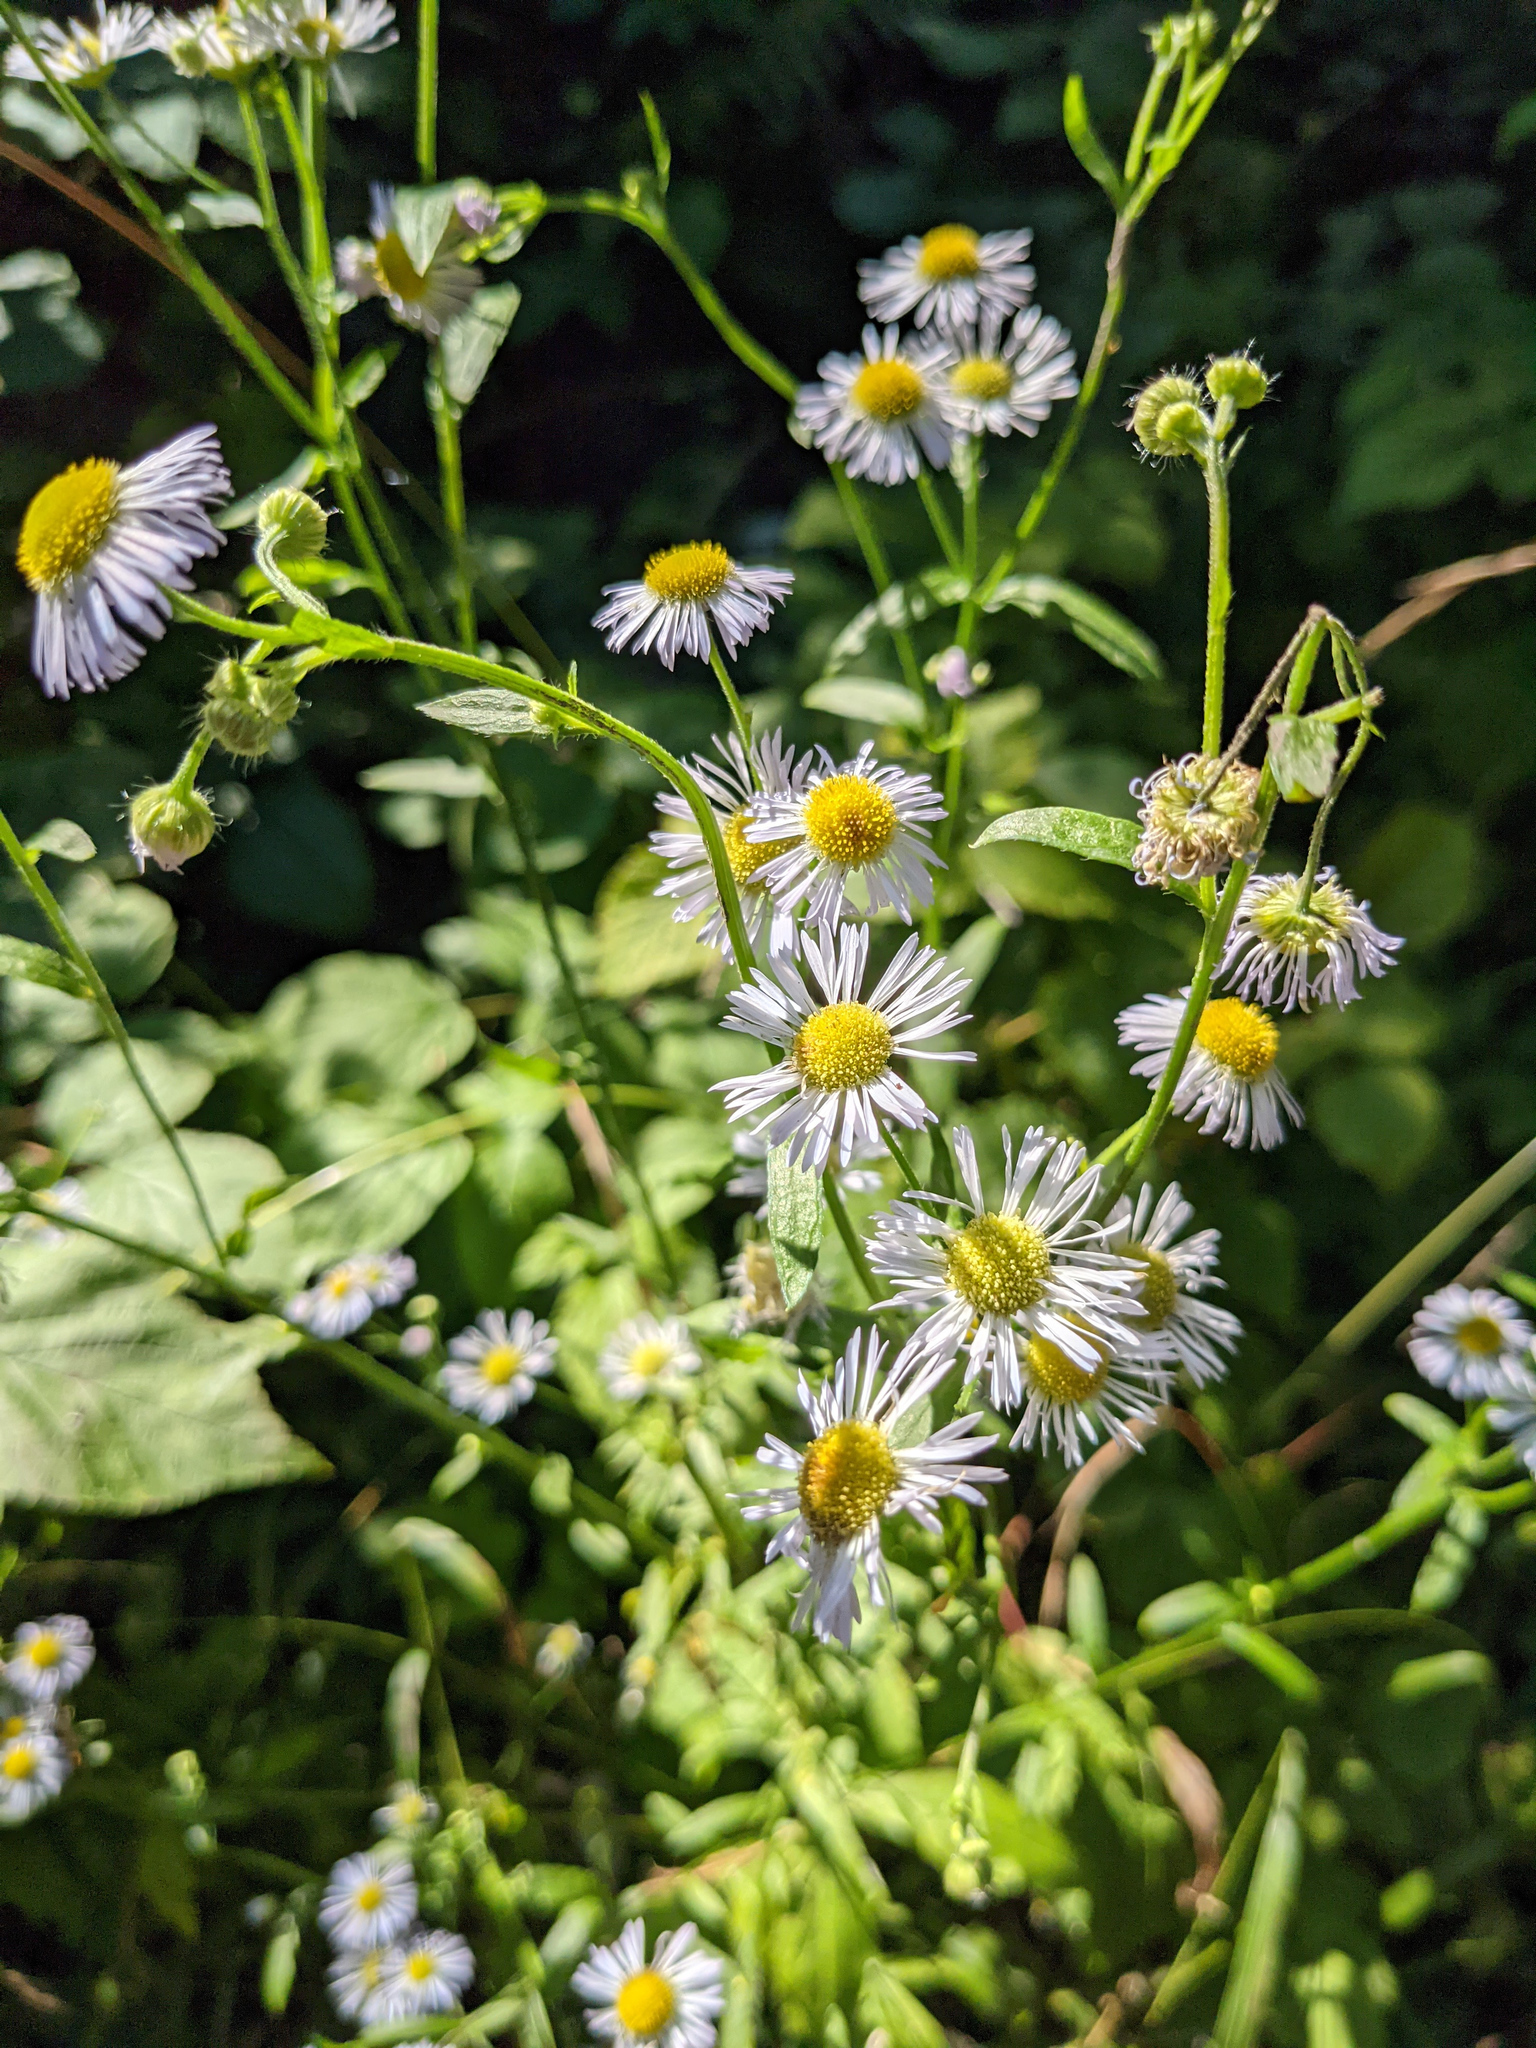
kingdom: Plantae
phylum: Tracheophyta
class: Magnoliopsida
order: Asterales
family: Asteraceae
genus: Erigeron
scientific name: Erigeron annuus
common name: Tall fleabane
